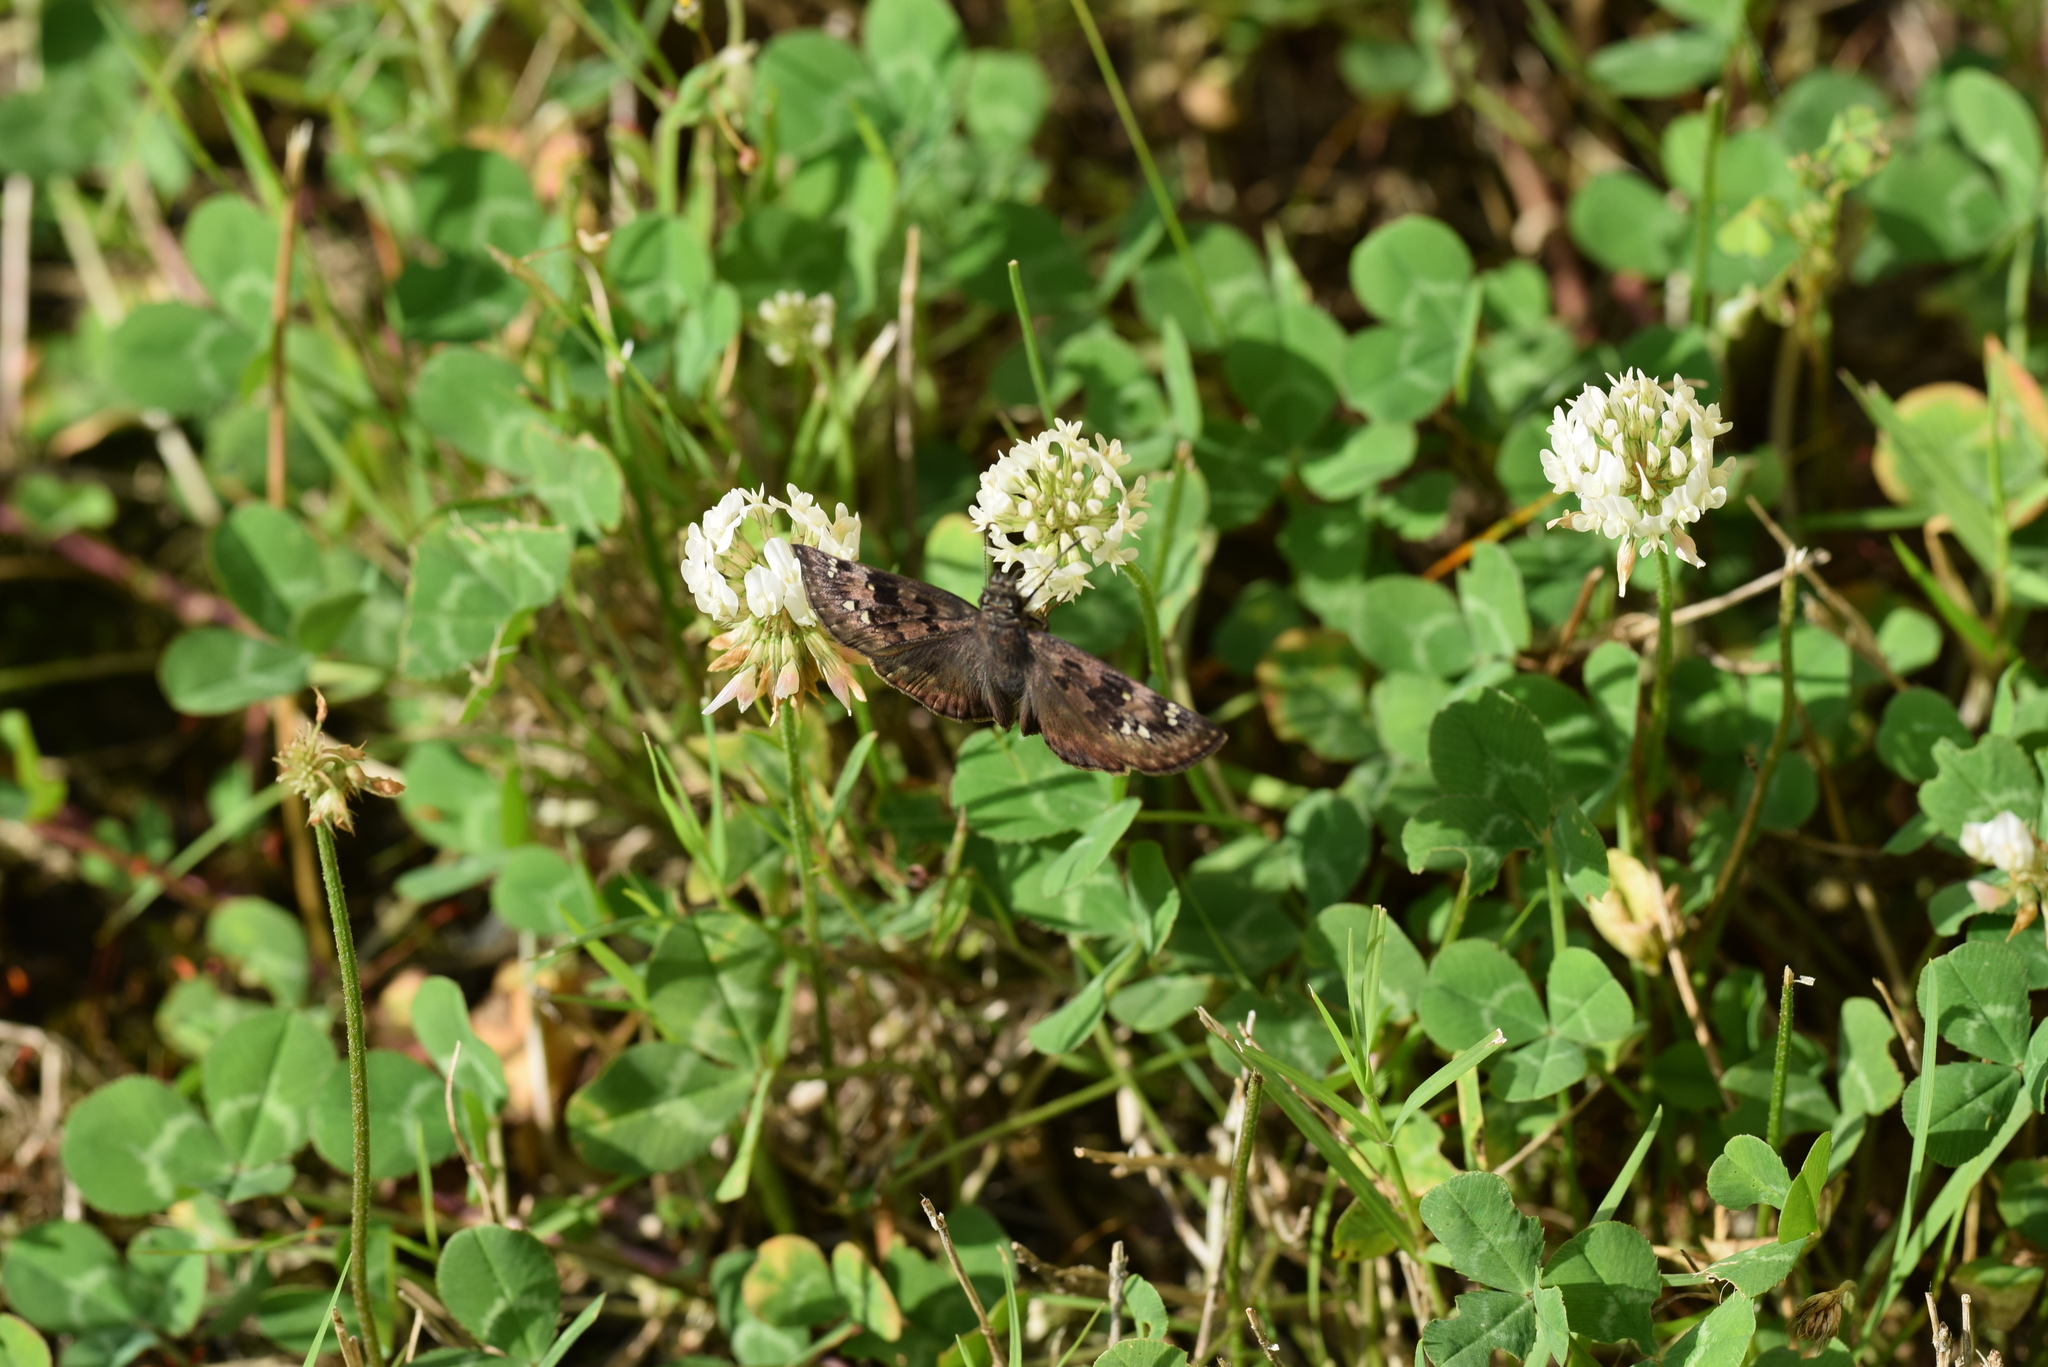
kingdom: Animalia
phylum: Arthropoda
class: Insecta
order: Lepidoptera
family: Hesperiidae
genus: Erynnis
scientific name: Erynnis horatius
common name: Horace's duskywing
